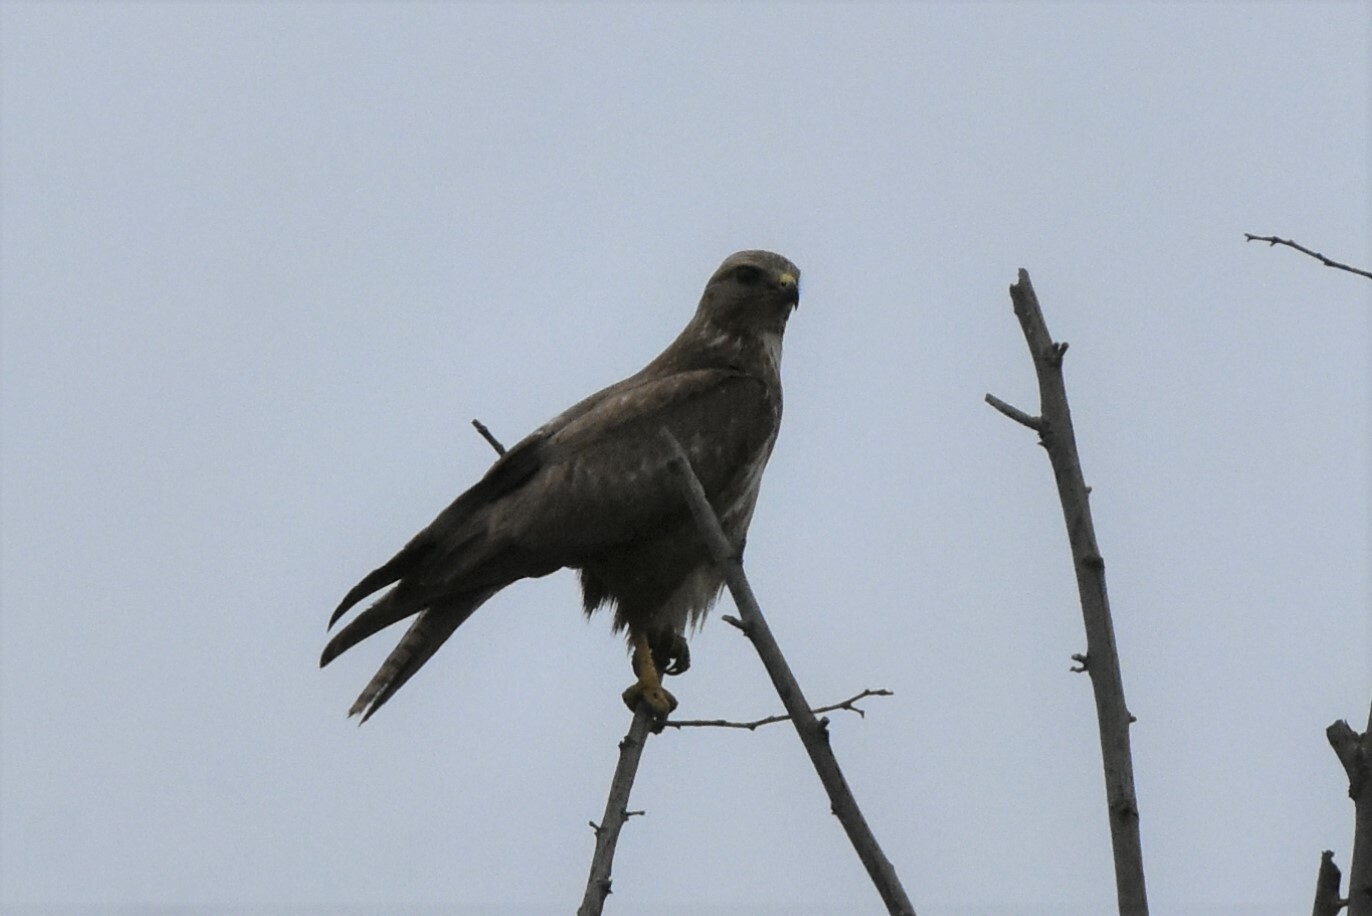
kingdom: Animalia
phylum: Chordata
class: Aves
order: Accipitriformes
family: Accipitridae
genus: Buteo
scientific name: Buteo buteo
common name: Common buzzard
